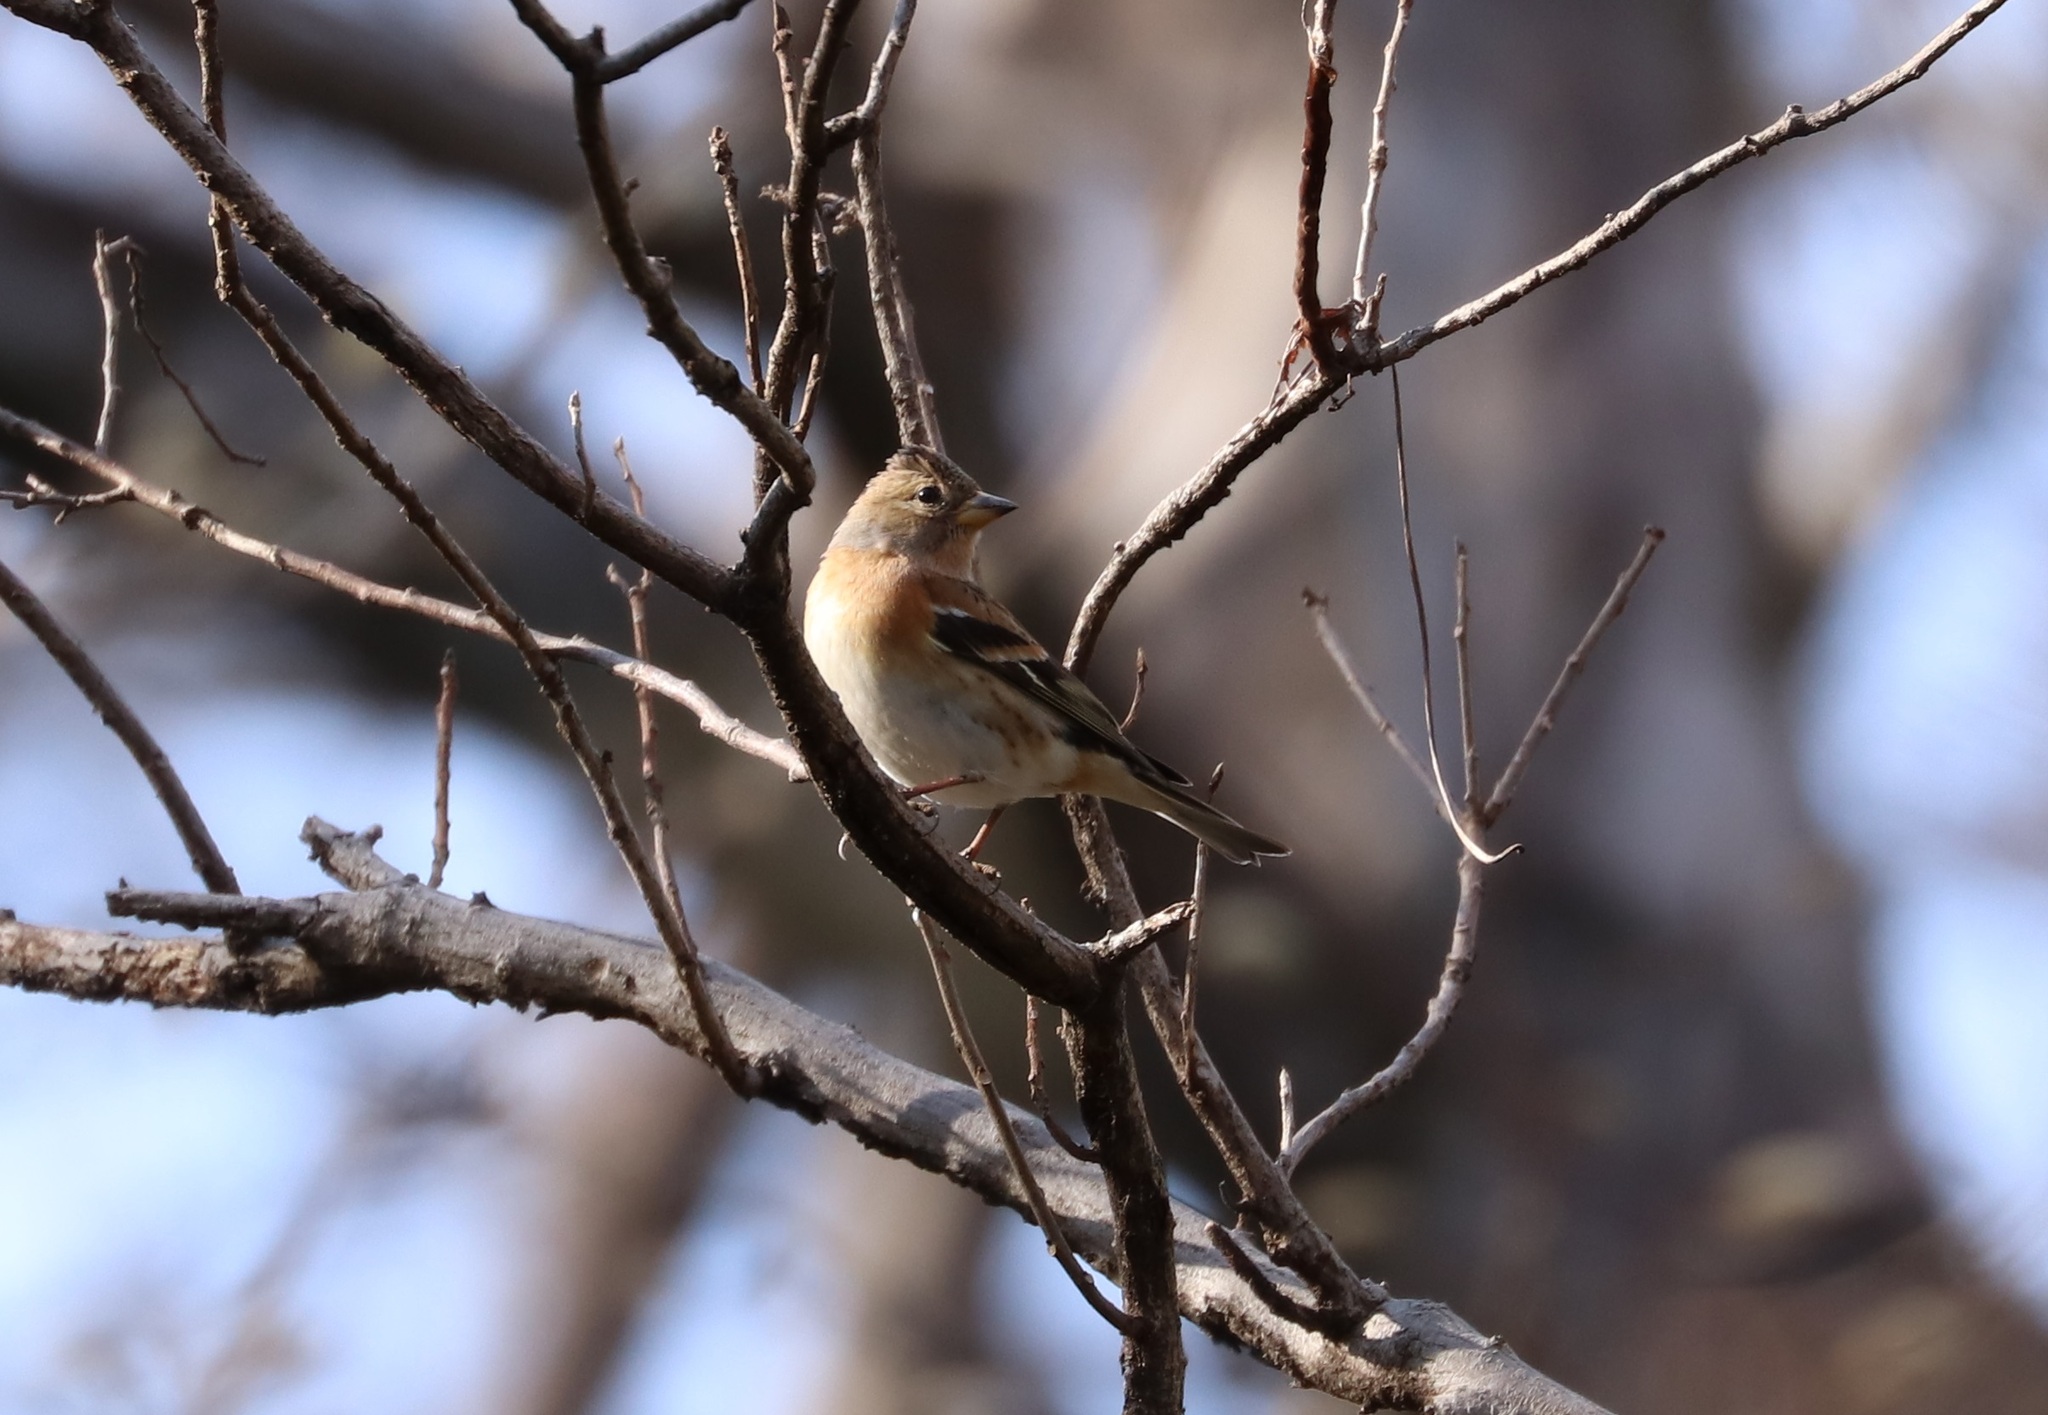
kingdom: Animalia
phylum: Chordata
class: Aves
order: Passeriformes
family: Fringillidae
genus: Fringilla
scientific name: Fringilla montifringilla
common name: Brambling
